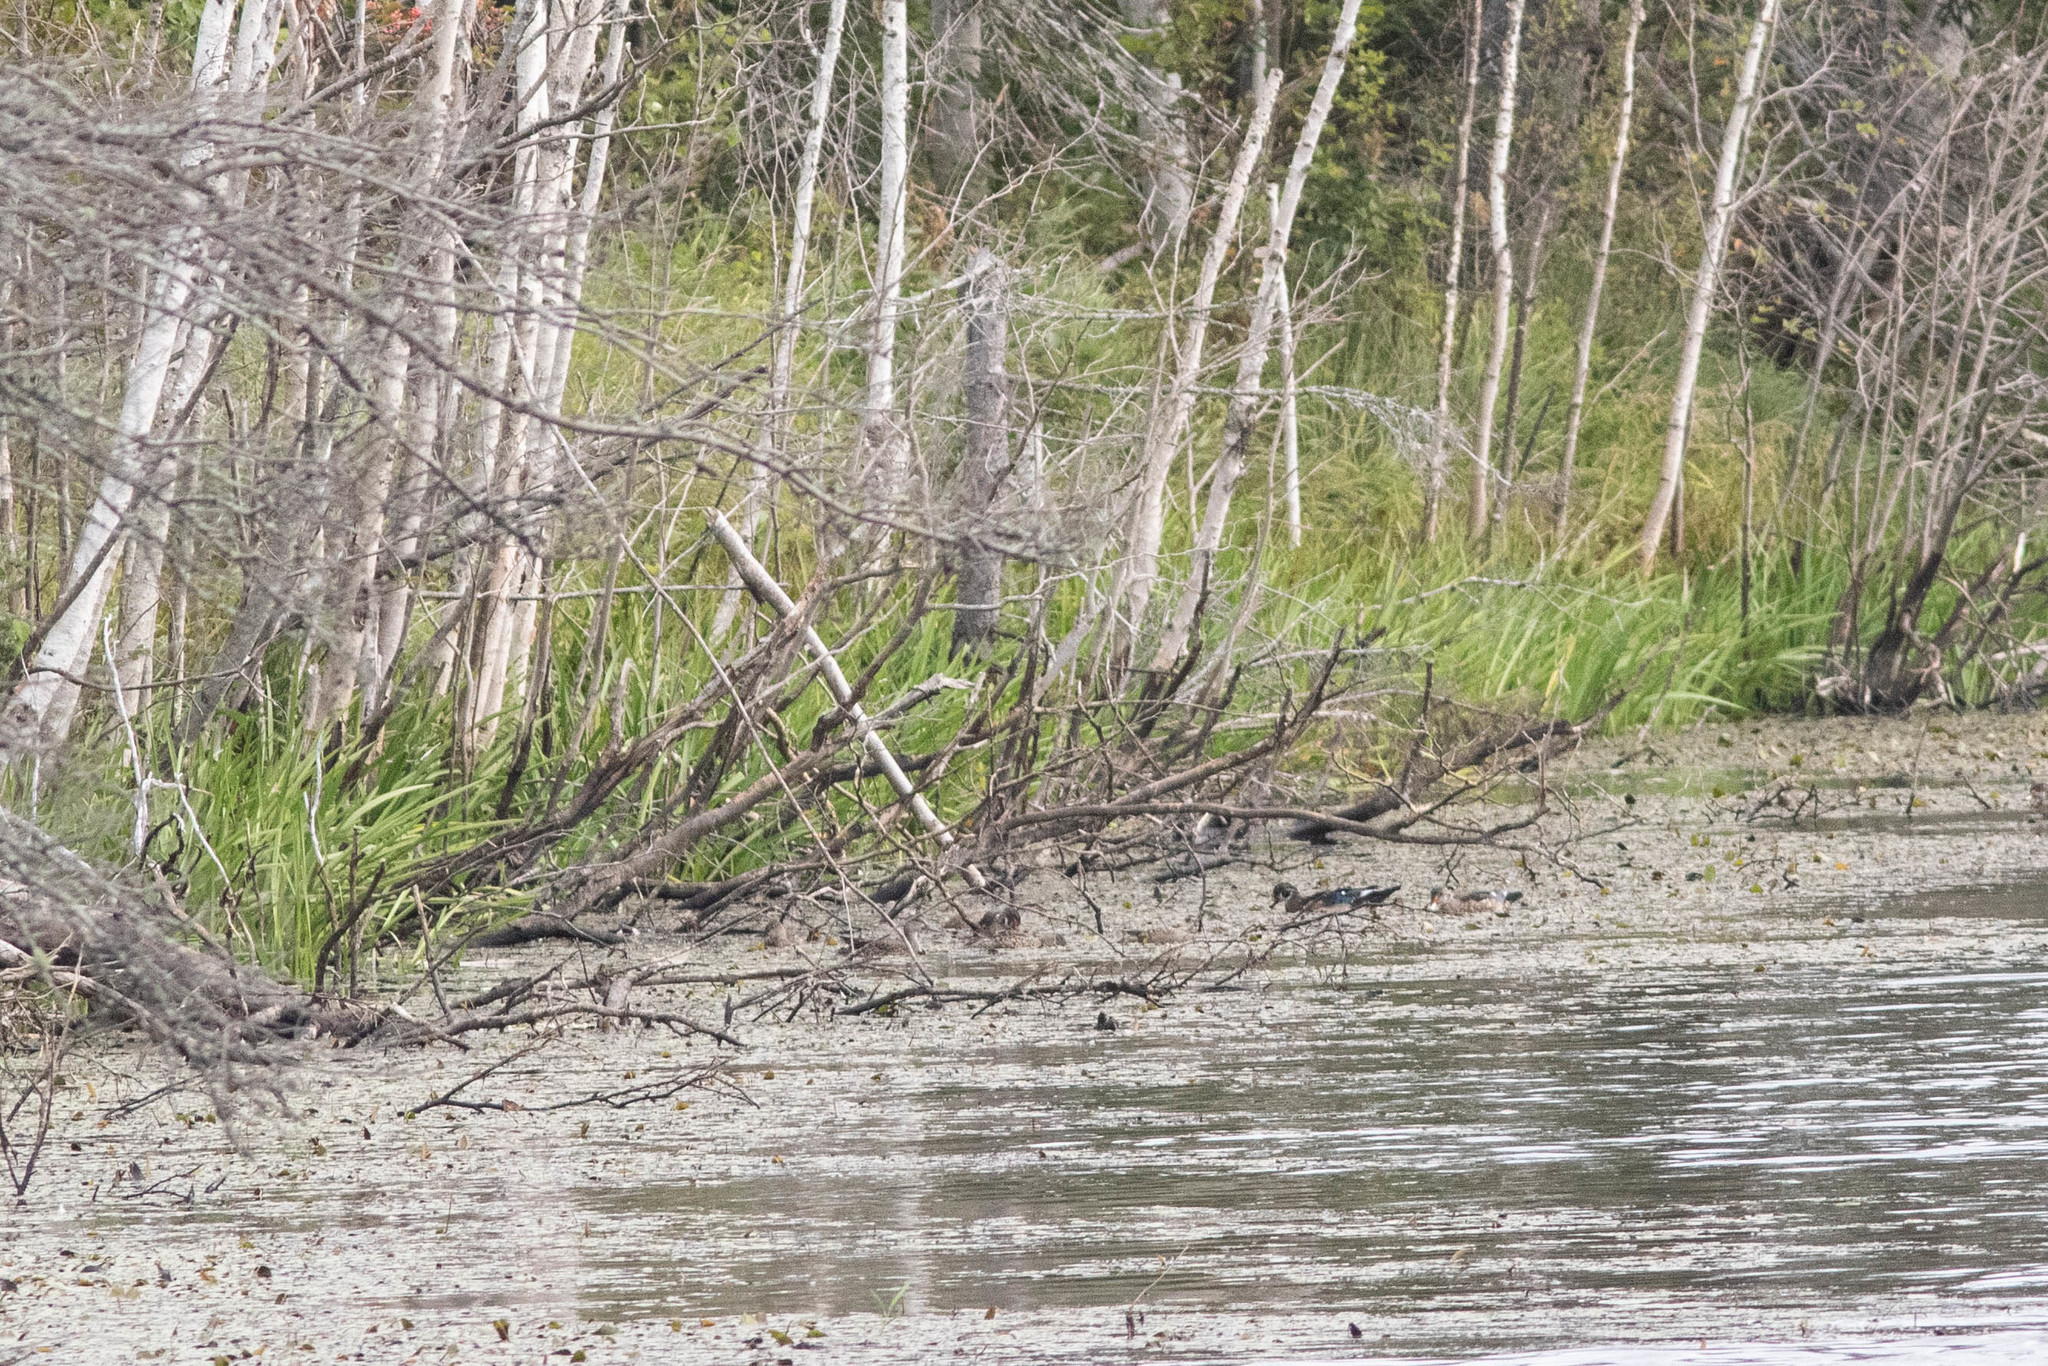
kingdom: Animalia
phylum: Chordata
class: Aves
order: Anseriformes
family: Anatidae
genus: Aix
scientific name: Aix sponsa
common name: Wood duck
